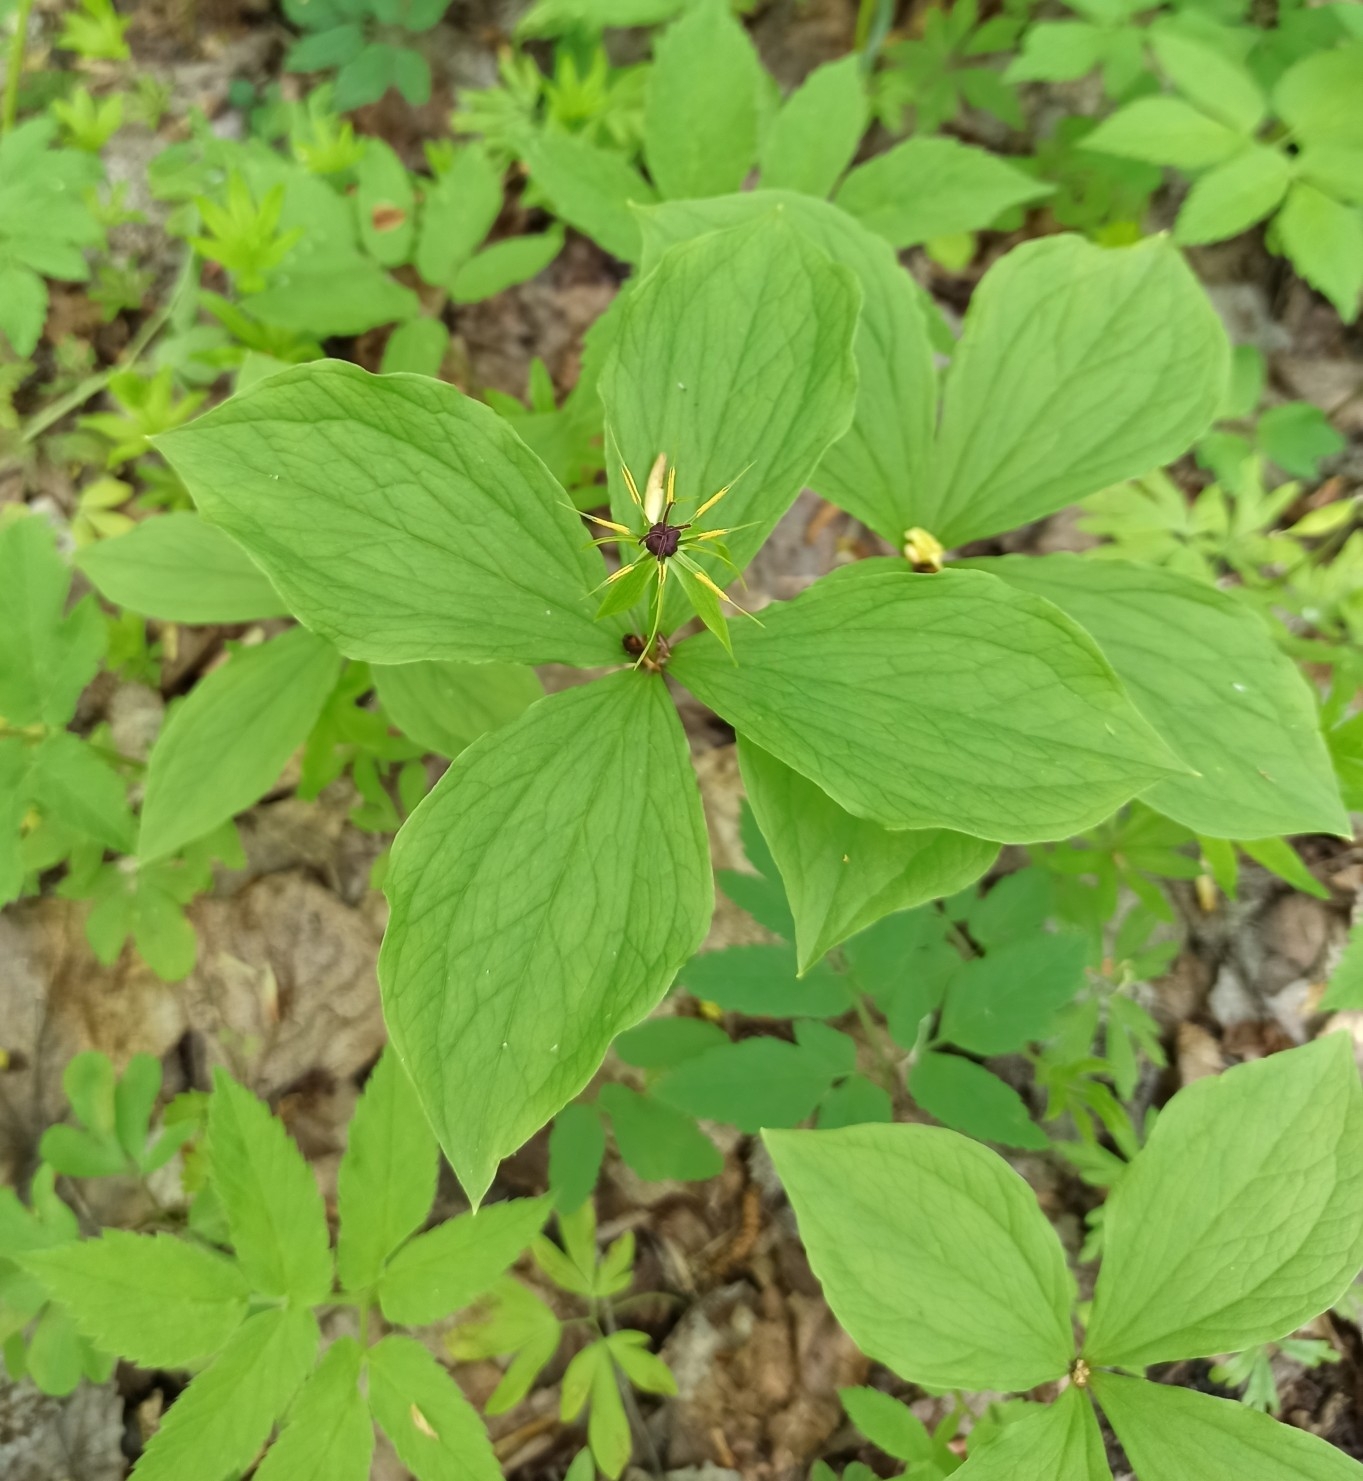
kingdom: Plantae
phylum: Tracheophyta
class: Liliopsida
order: Liliales
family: Melanthiaceae
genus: Paris
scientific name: Paris quadrifolia
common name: Herb-paris
